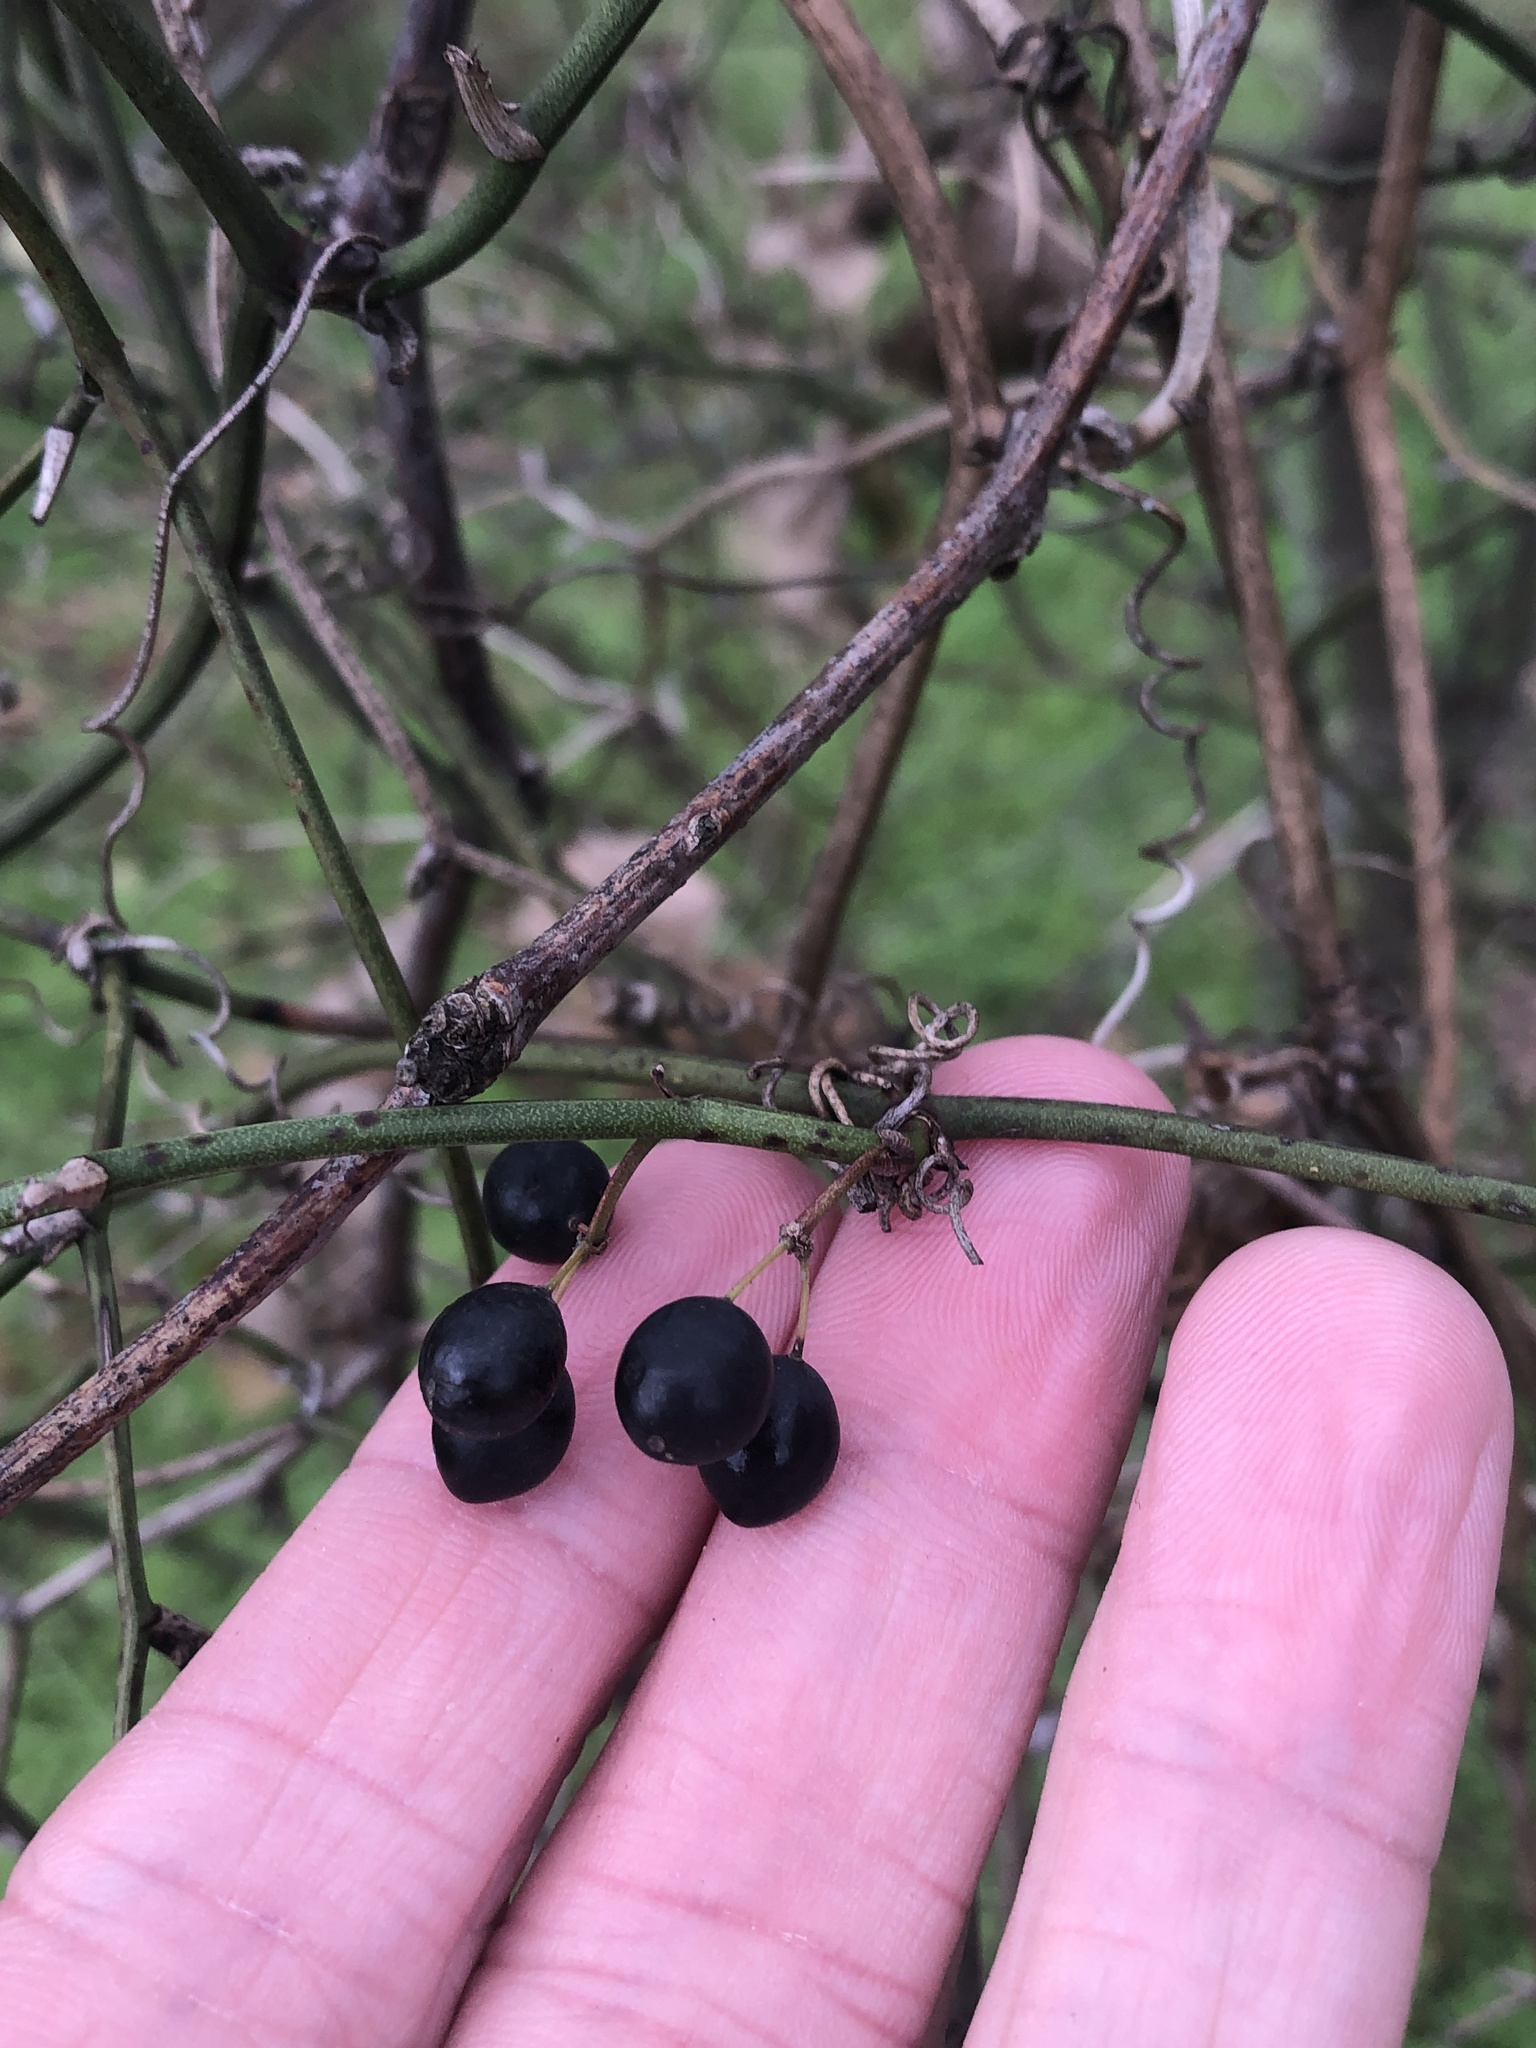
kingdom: Plantae
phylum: Tracheophyta
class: Liliopsida
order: Liliales
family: Smilacaceae
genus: Smilax
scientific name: Smilax bona-nox
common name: Catbrier
